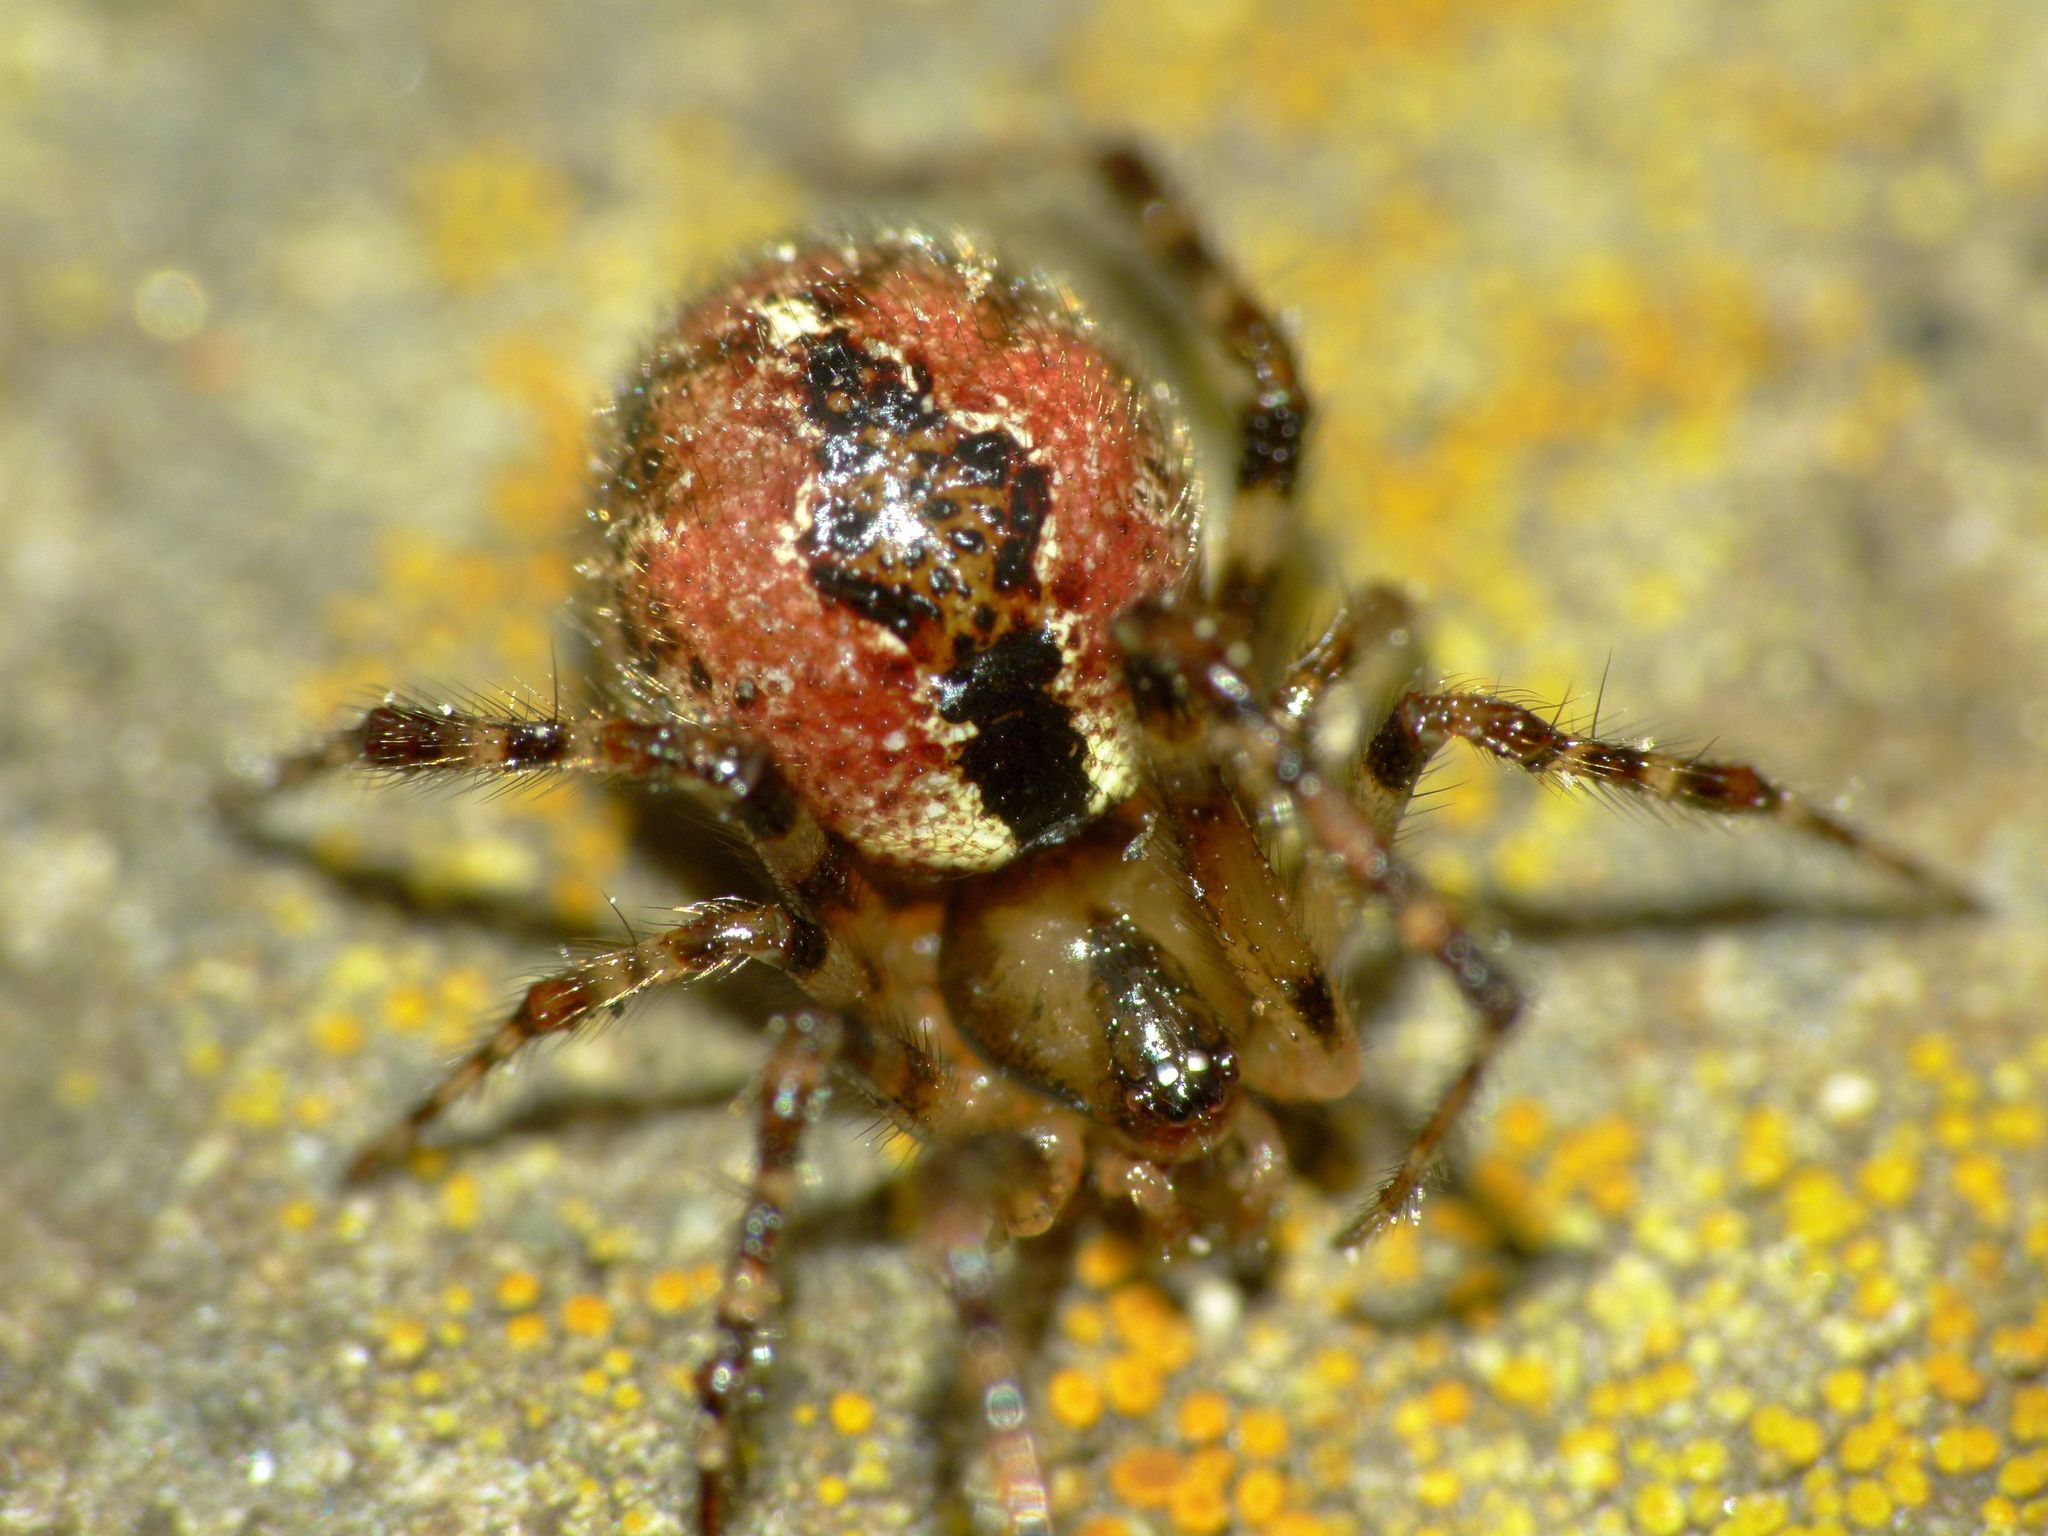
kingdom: Animalia
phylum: Arthropoda
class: Arachnida
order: Araneae
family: Theridiidae
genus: Cryptachaea
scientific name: Cryptachaea veruculata
